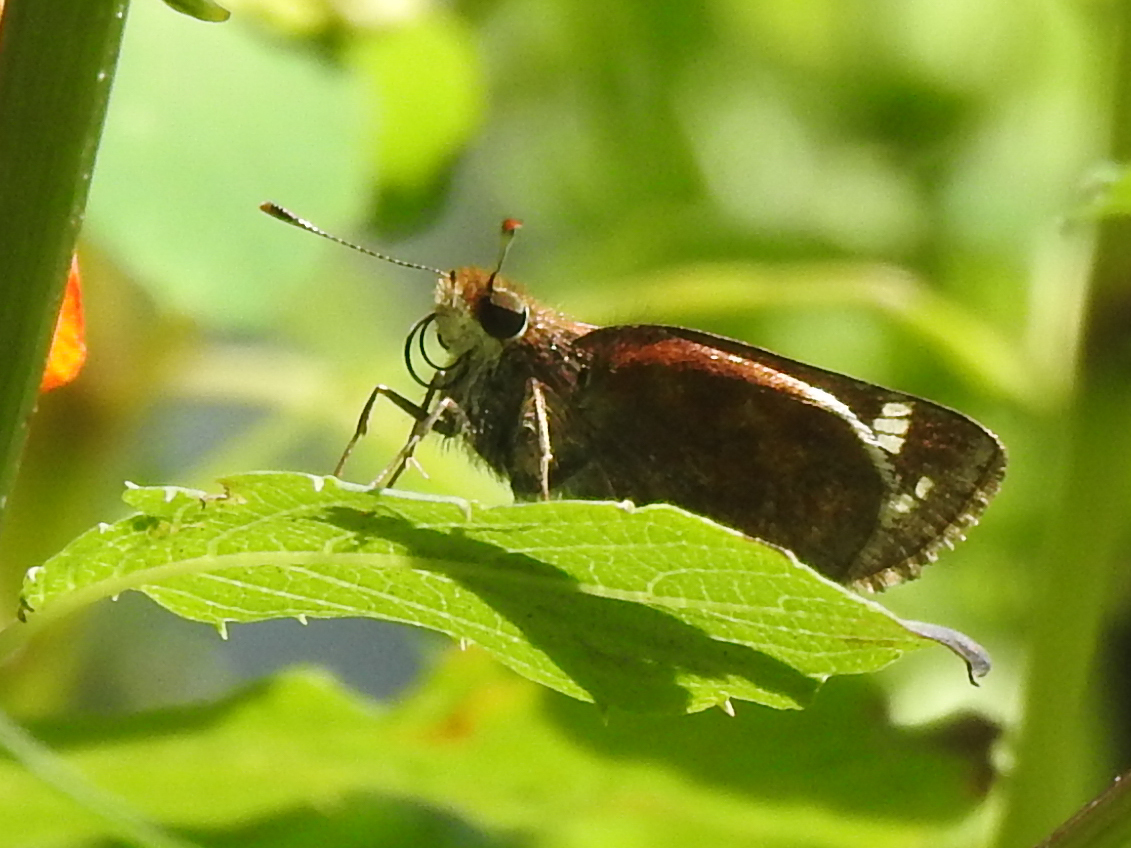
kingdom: Animalia
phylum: Arthropoda
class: Insecta
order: Lepidoptera
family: Hesperiidae
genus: Lon
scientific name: Lon zabulon
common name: Zabulon skipper
